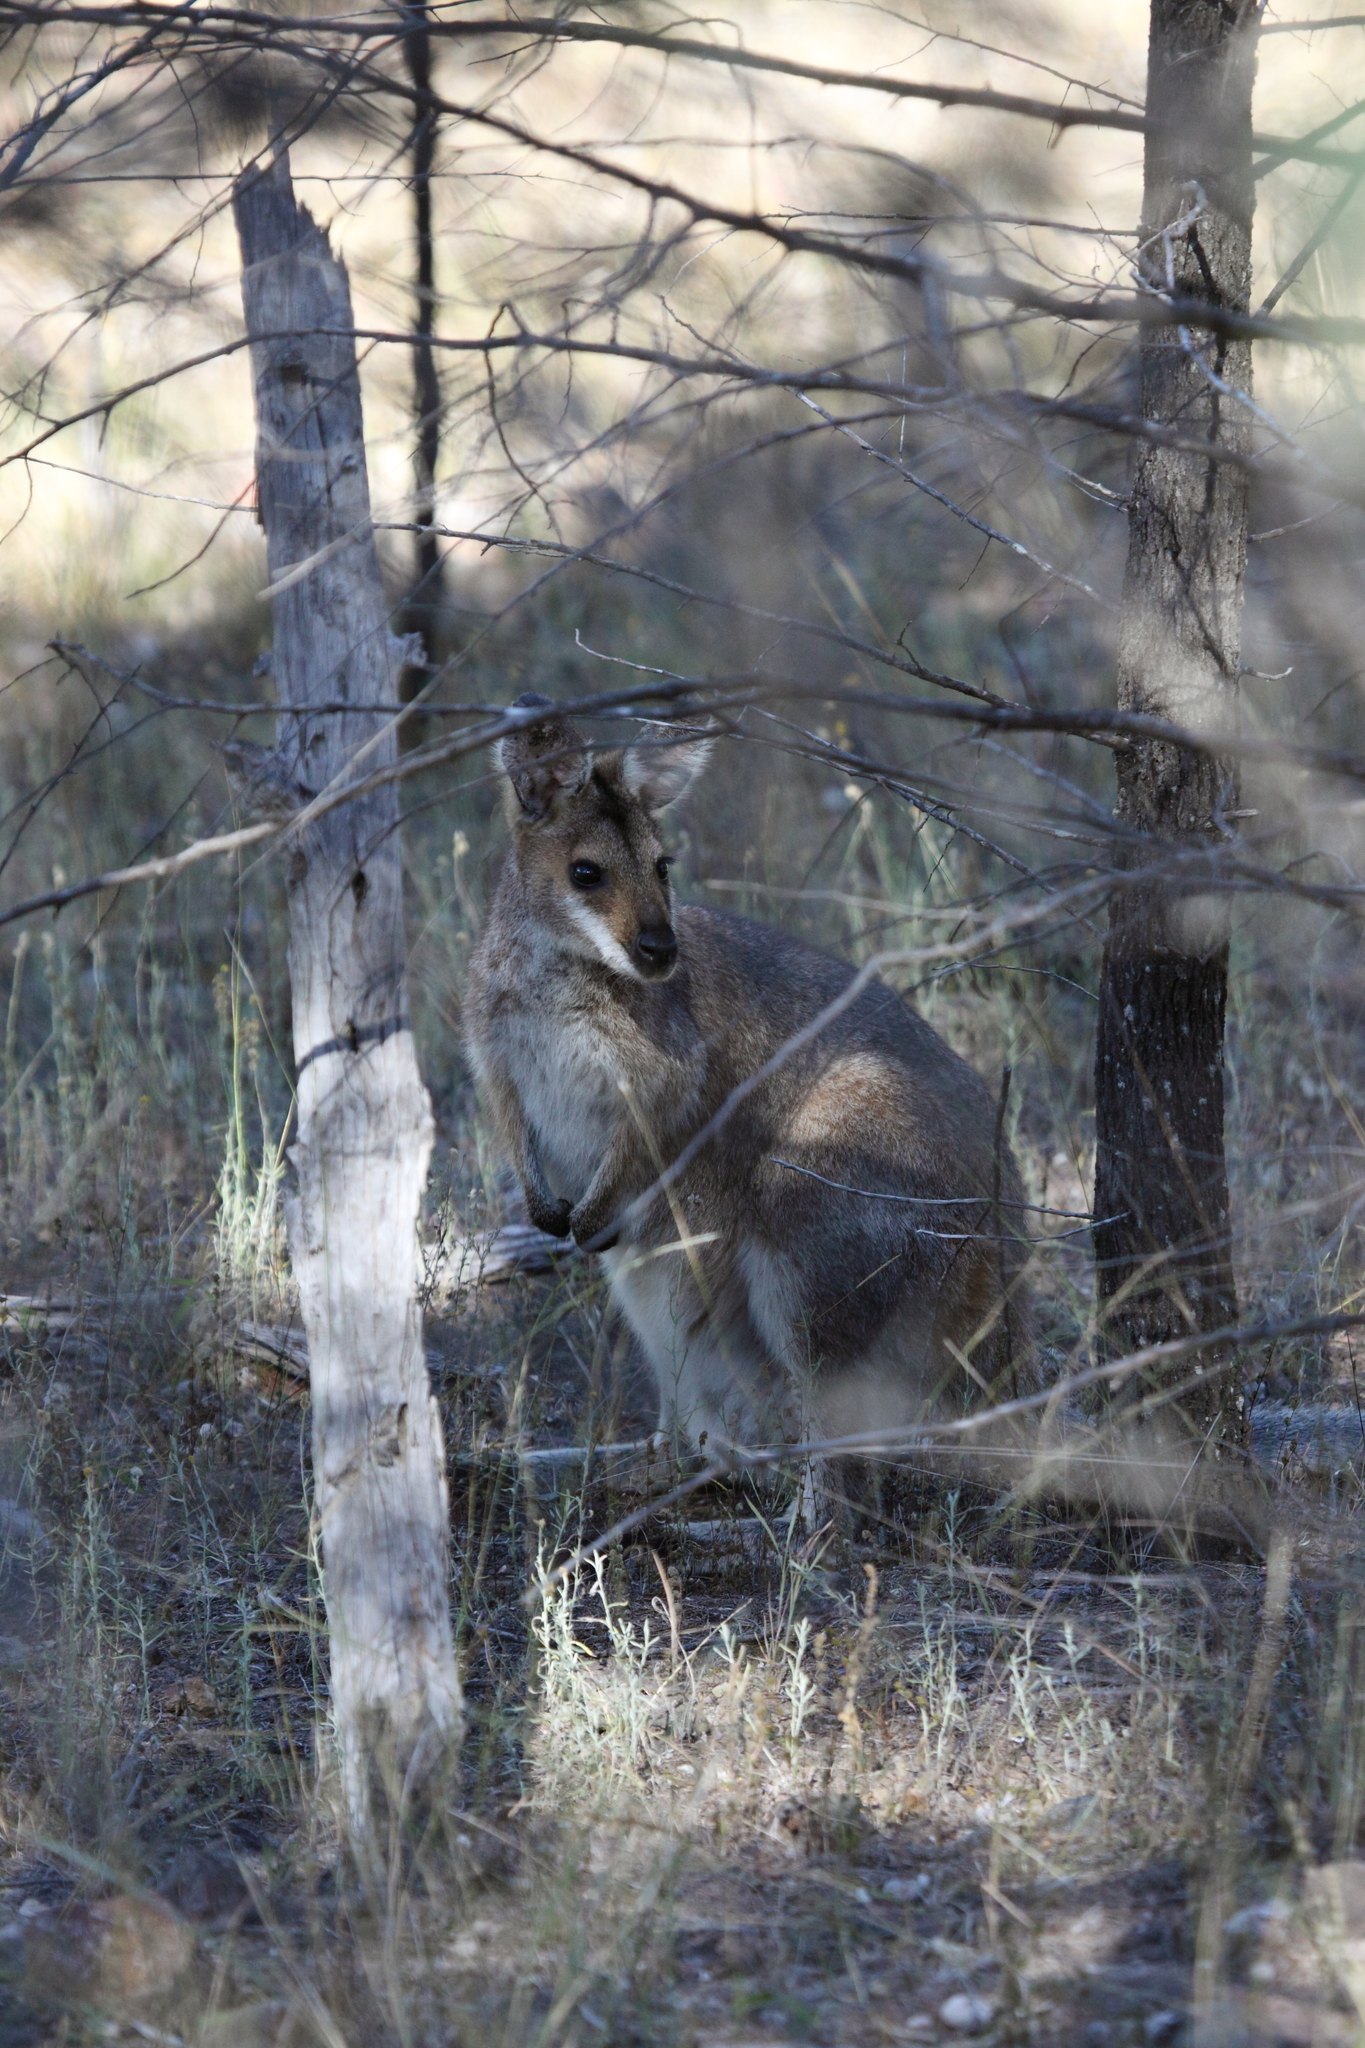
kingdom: Animalia
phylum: Chordata
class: Mammalia
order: Diprotodontia
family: Macropodidae
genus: Notamacropus
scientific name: Notamacropus rufogriseus
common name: Red-necked wallaby
